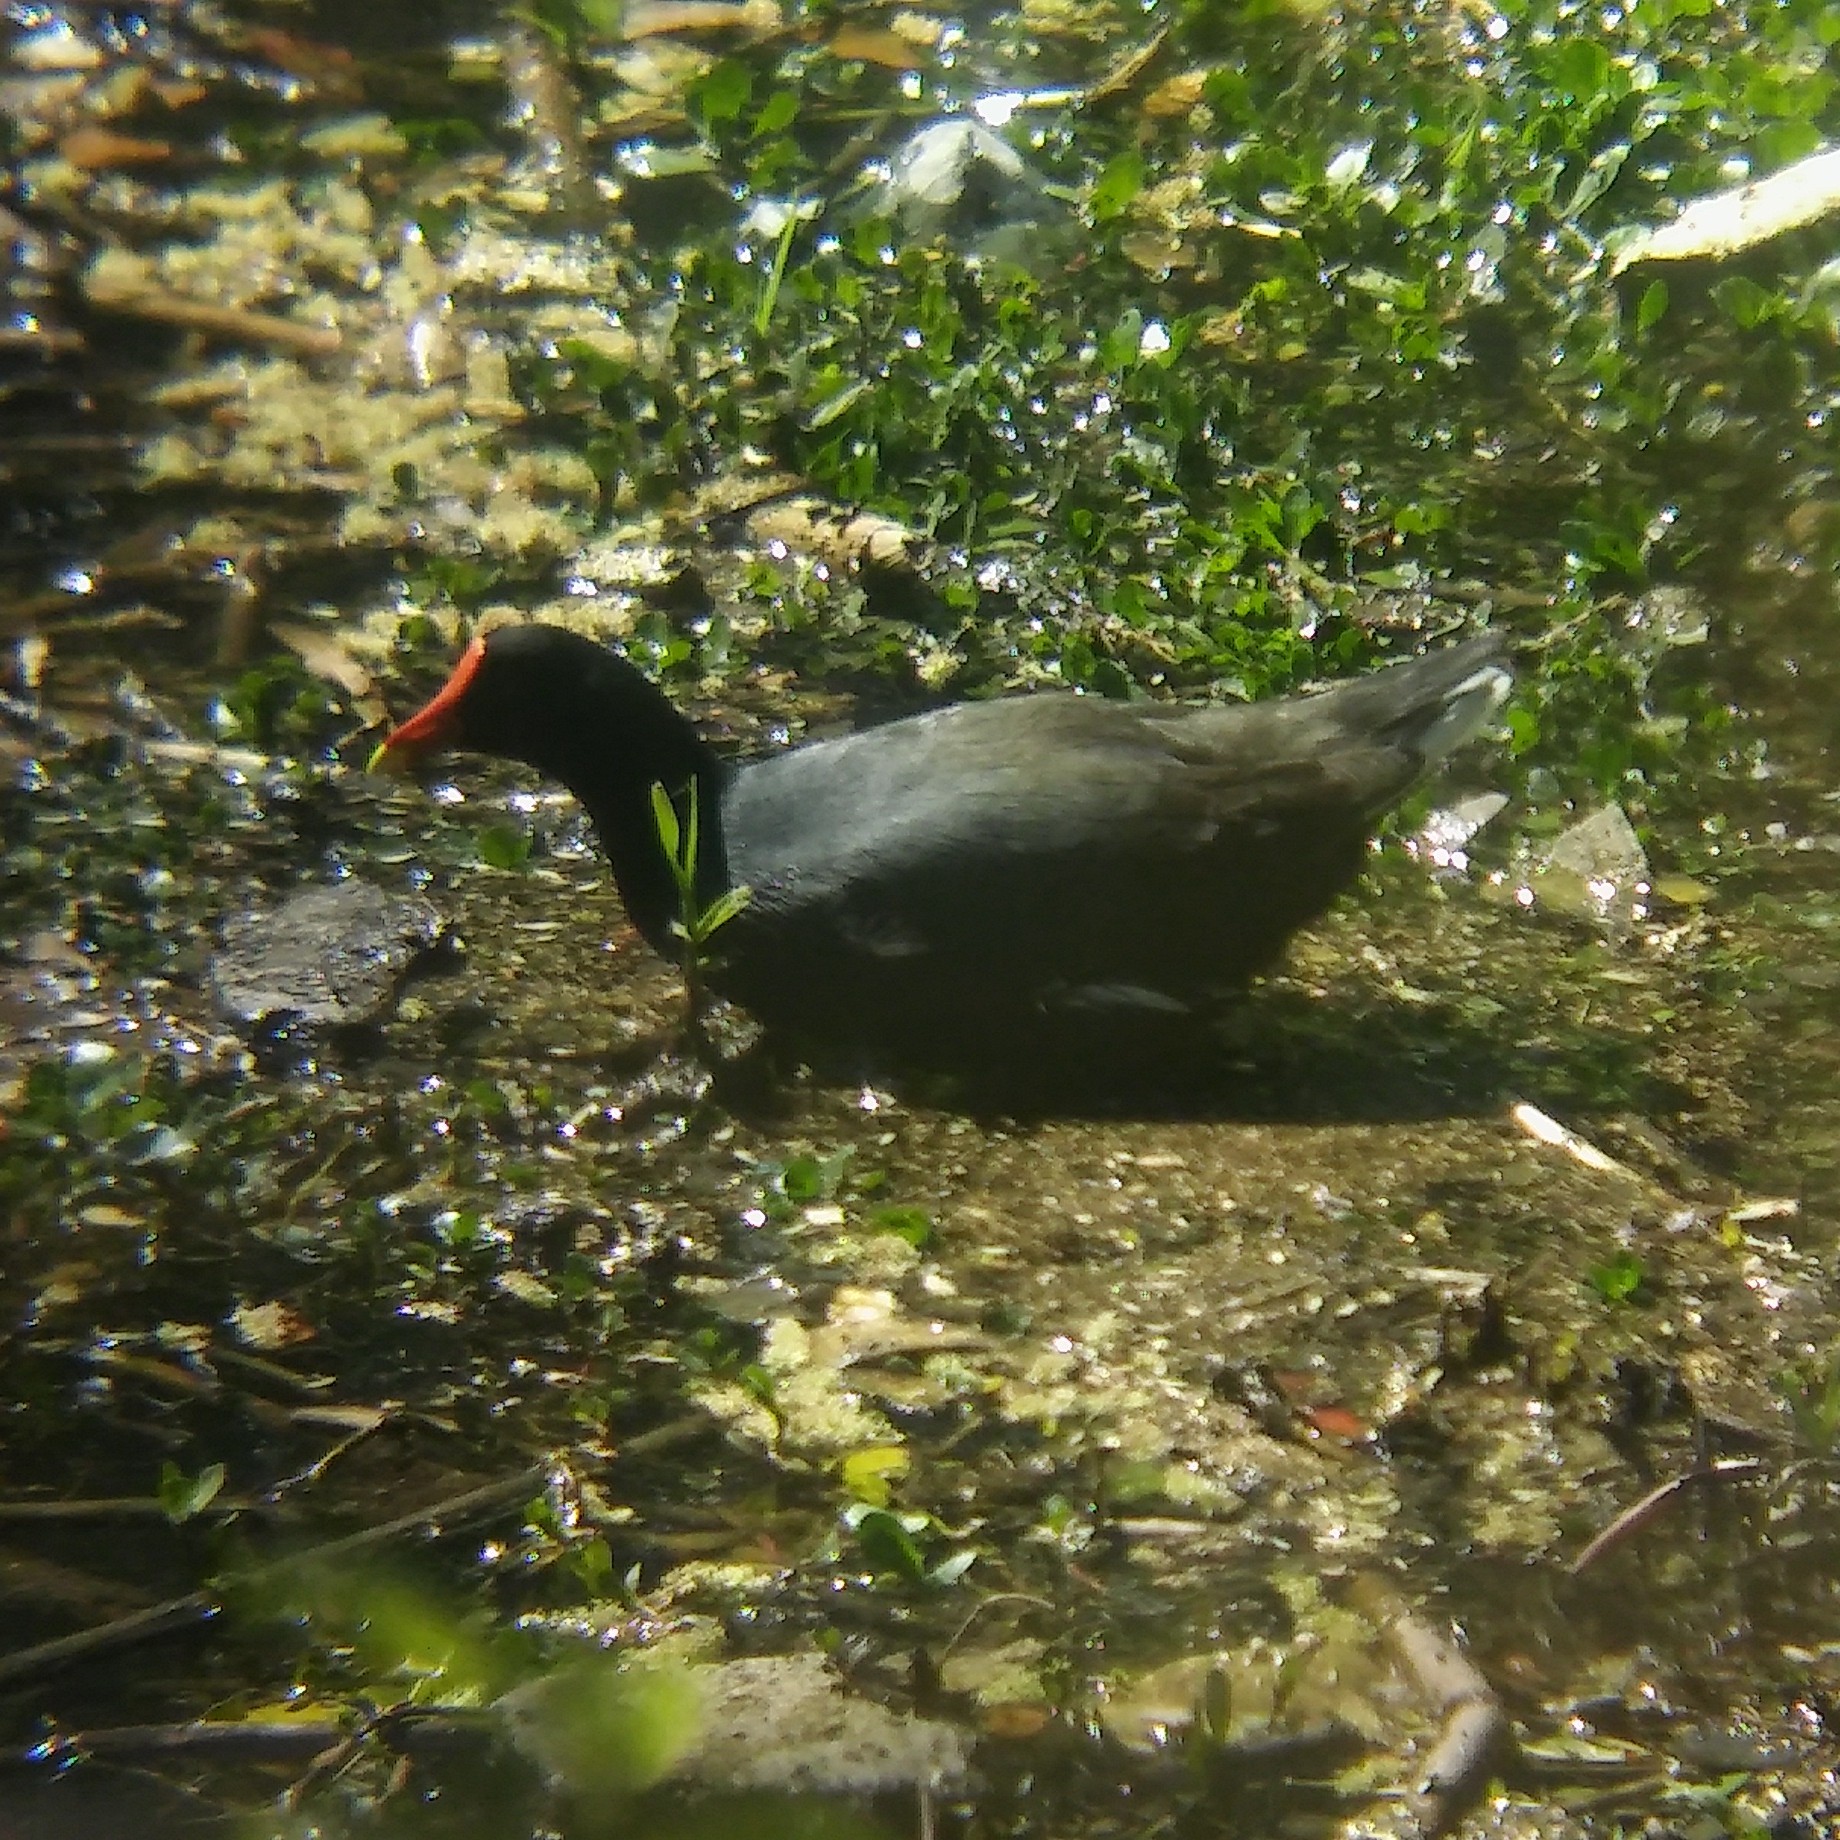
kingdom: Animalia
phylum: Chordata
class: Aves
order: Gruiformes
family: Rallidae
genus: Gallinula
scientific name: Gallinula chloropus
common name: Common moorhen
